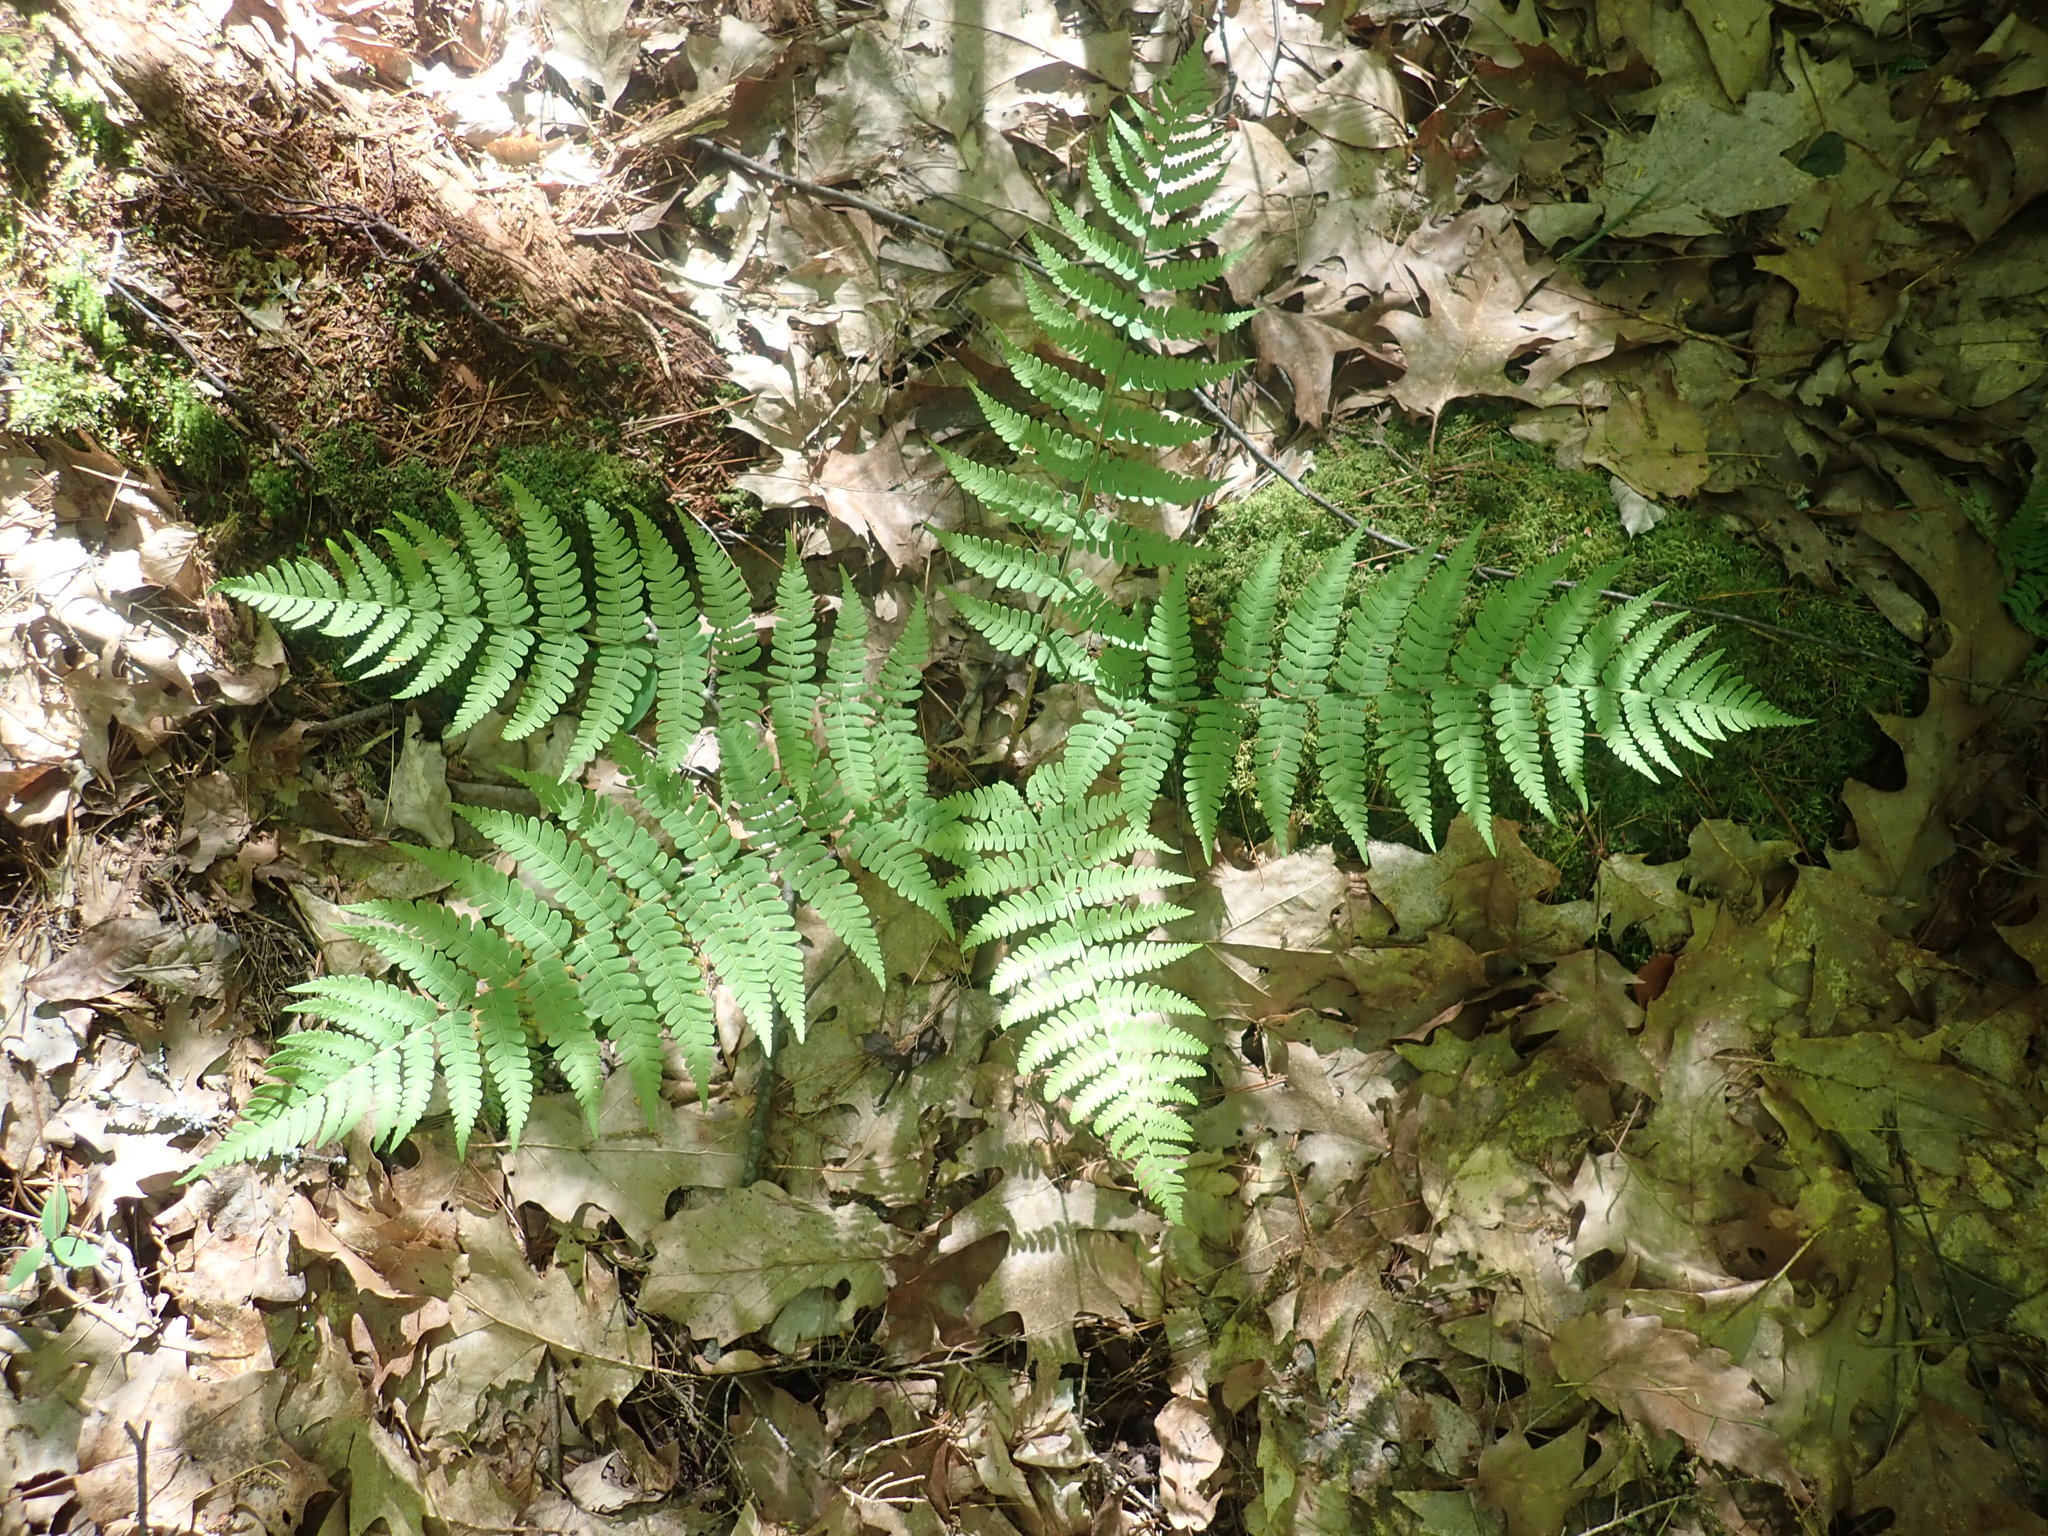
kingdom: Plantae
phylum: Tracheophyta
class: Polypodiopsida
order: Polypodiales
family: Dryopteridaceae
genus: Dryopteris
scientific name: Dryopteris marginalis
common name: Marginal wood fern
